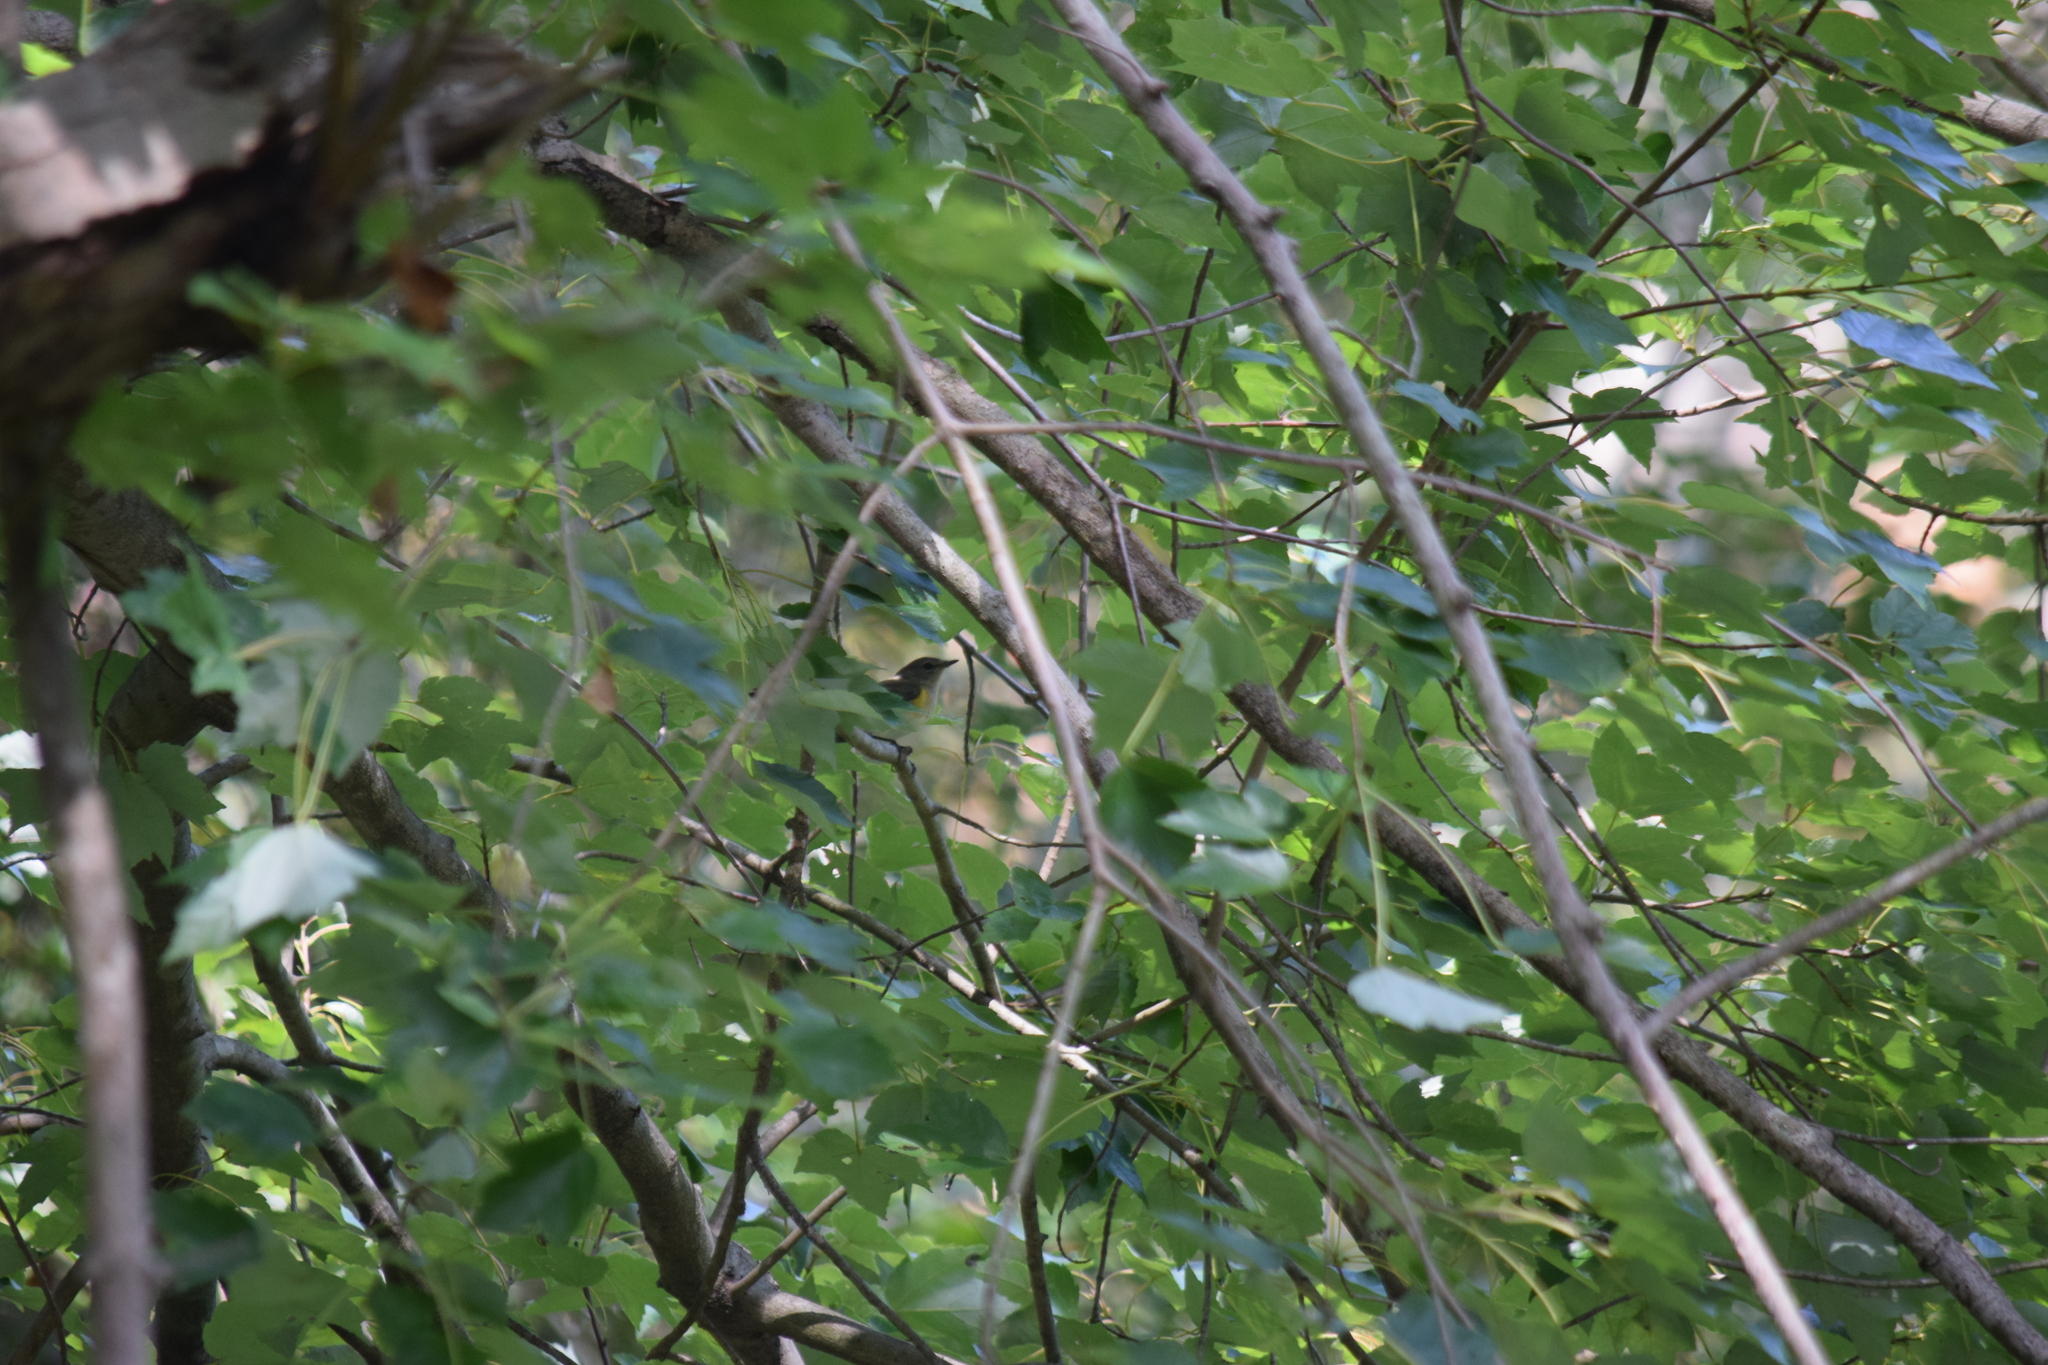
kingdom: Animalia
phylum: Chordata
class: Aves
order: Passeriformes
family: Parulidae
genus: Setophaga
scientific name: Setophaga ruticilla
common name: American redstart
